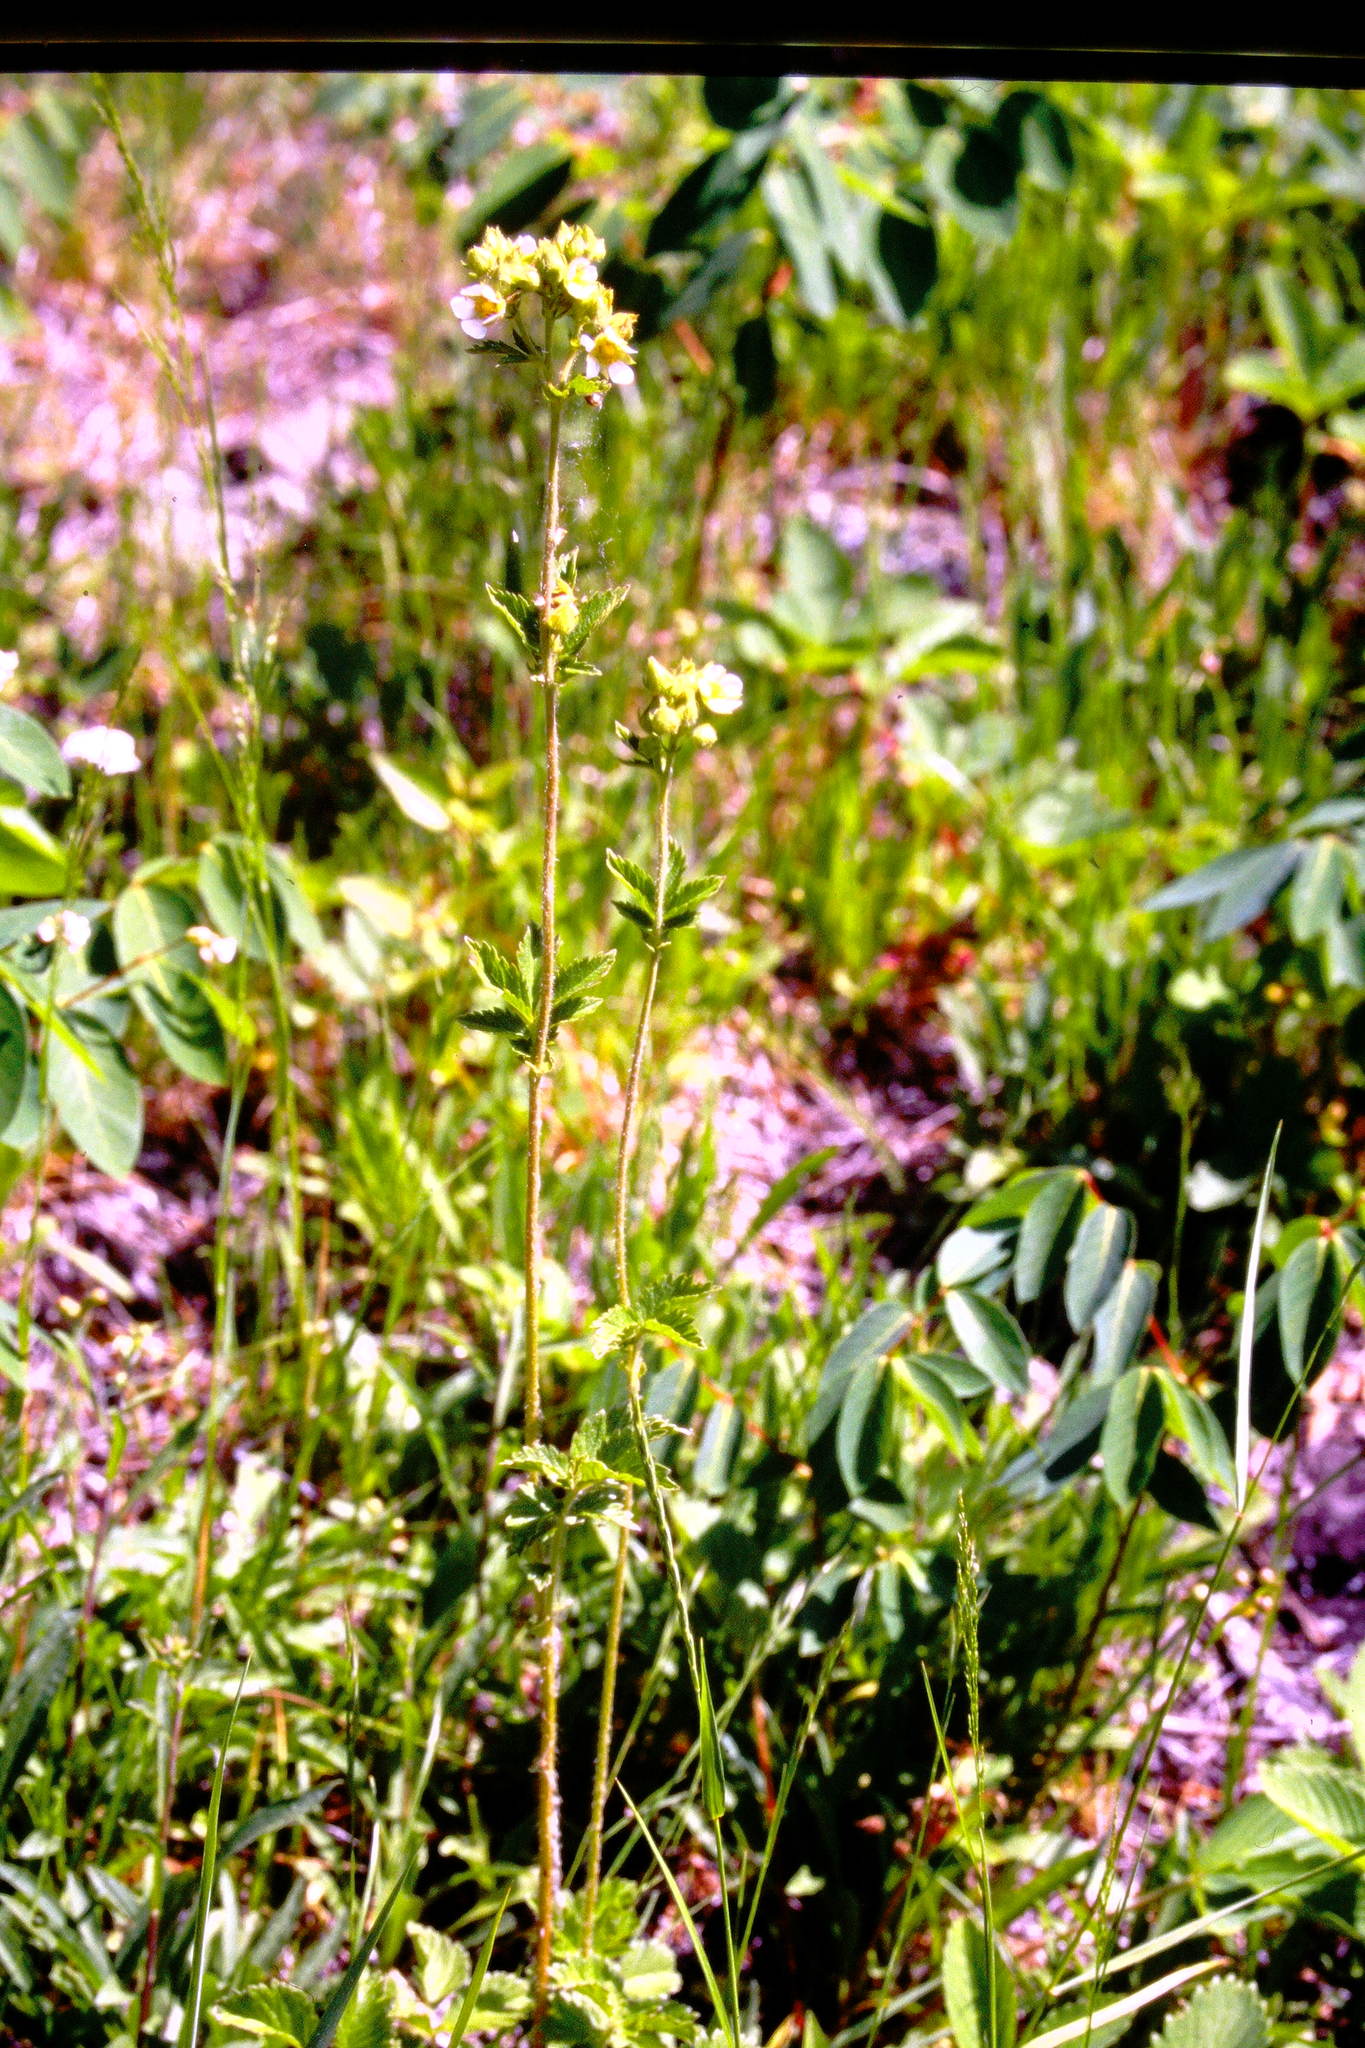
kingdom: Plantae
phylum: Tracheophyta
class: Magnoliopsida
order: Rosales
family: Rosaceae
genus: Drymocallis
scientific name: Drymocallis arguta
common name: Tall cinquefoil
